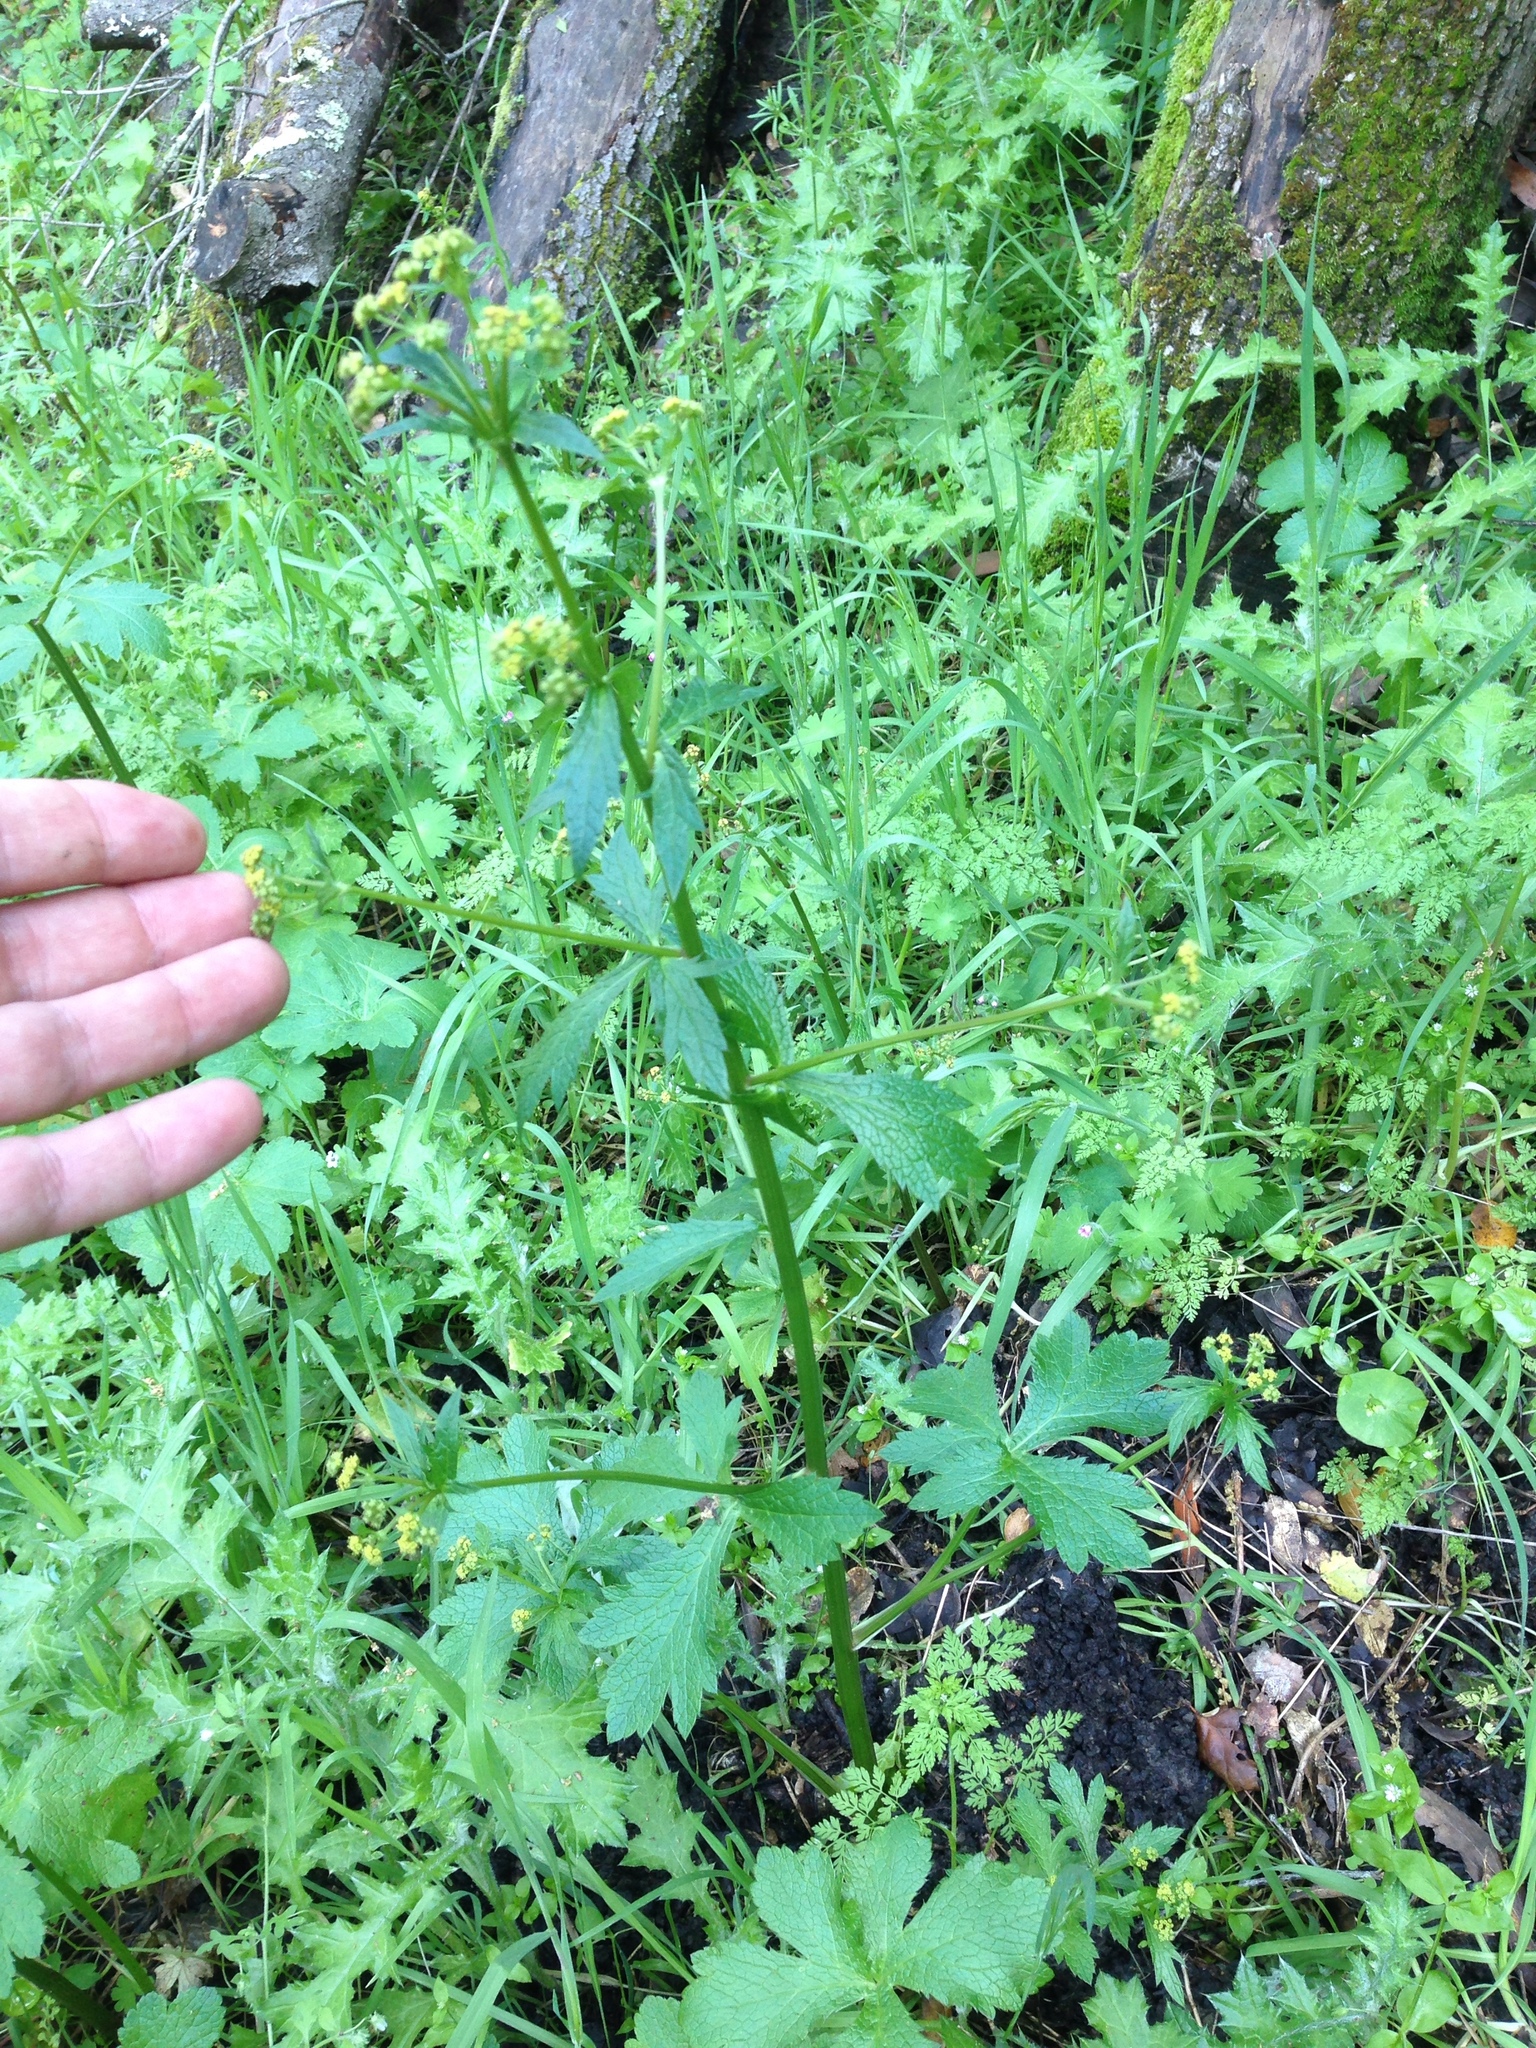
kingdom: Plantae
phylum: Tracheophyta
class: Magnoliopsida
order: Apiales
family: Apiaceae
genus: Sanicula
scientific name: Sanicula crassicaulis
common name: Western snakeroot
